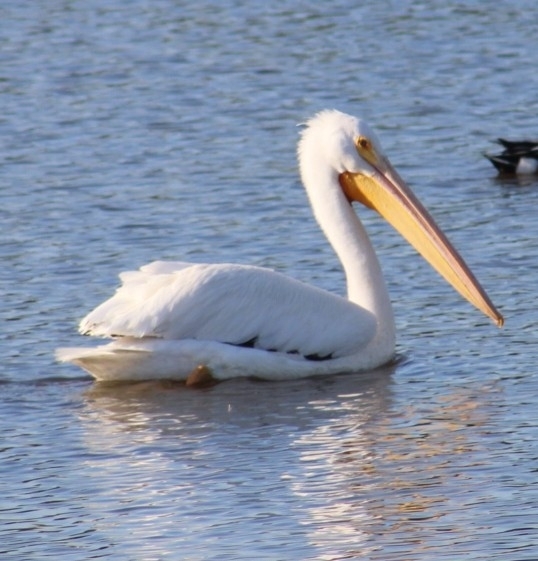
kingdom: Animalia
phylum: Chordata
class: Aves
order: Pelecaniformes
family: Pelecanidae
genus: Pelecanus
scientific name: Pelecanus erythrorhynchos
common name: American white pelican
